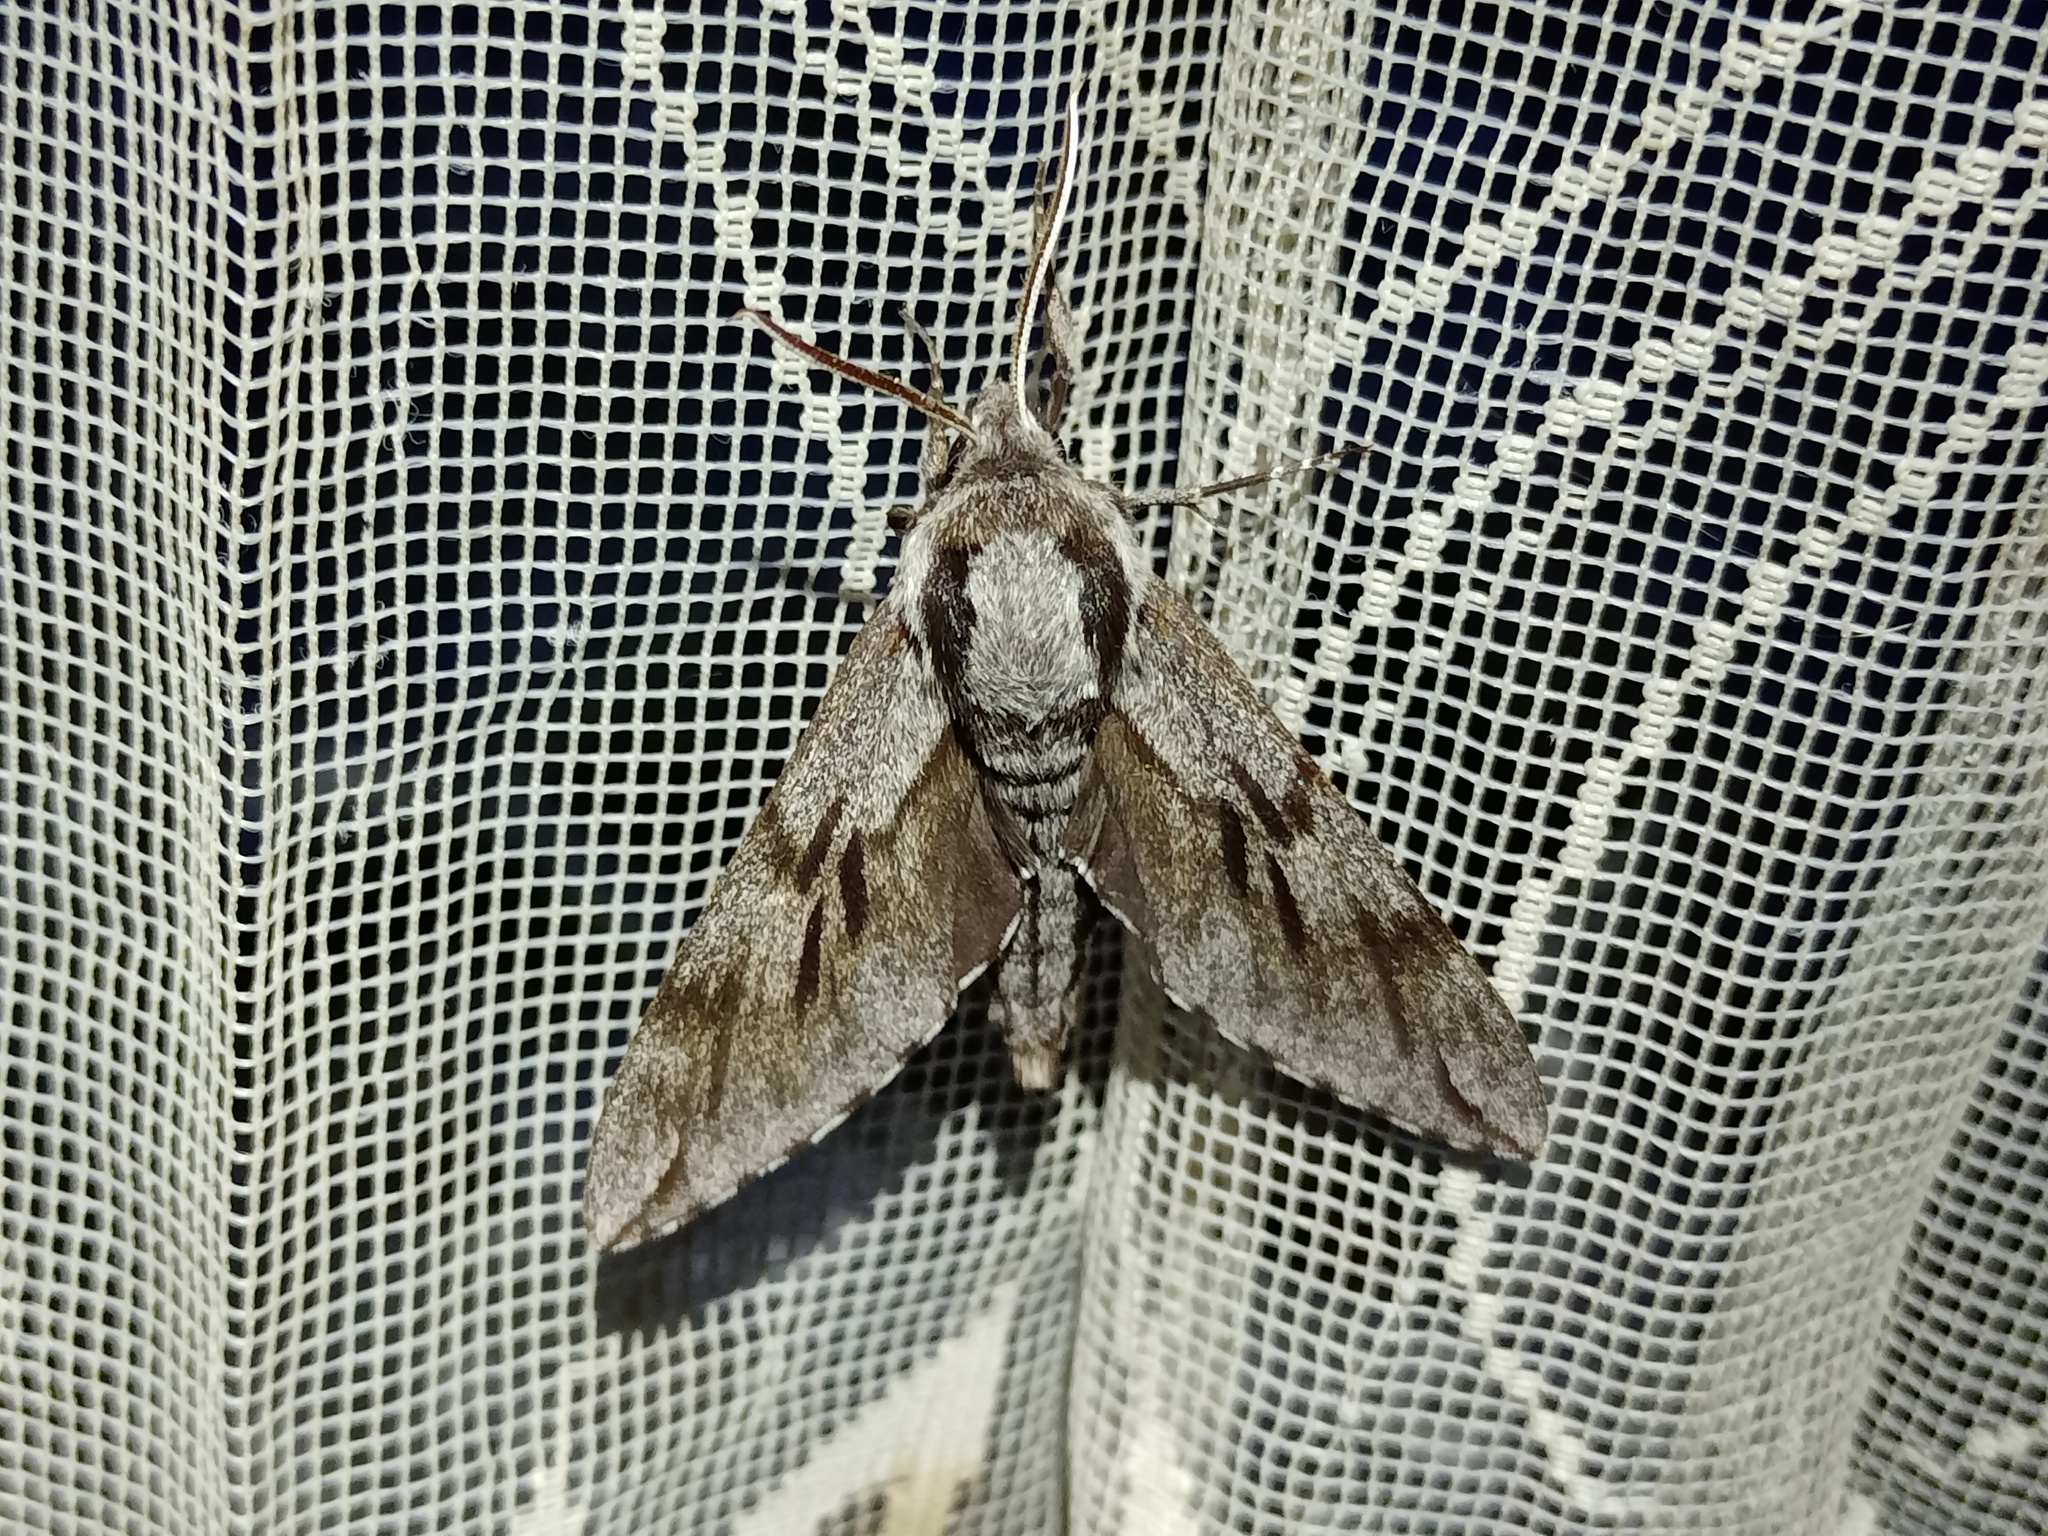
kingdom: Animalia
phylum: Arthropoda
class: Insecta
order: Lepidoptera
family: Sphingidae
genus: Sphinx
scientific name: Sphinx pinastri
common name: Pine hawk-moth
